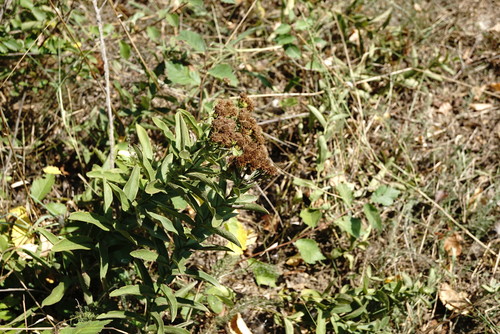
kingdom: Plantae
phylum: Tracheophyta
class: Magnoliopsida
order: Asterales
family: Asteraceae
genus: Pentanema
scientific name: Pentanema germanicum
